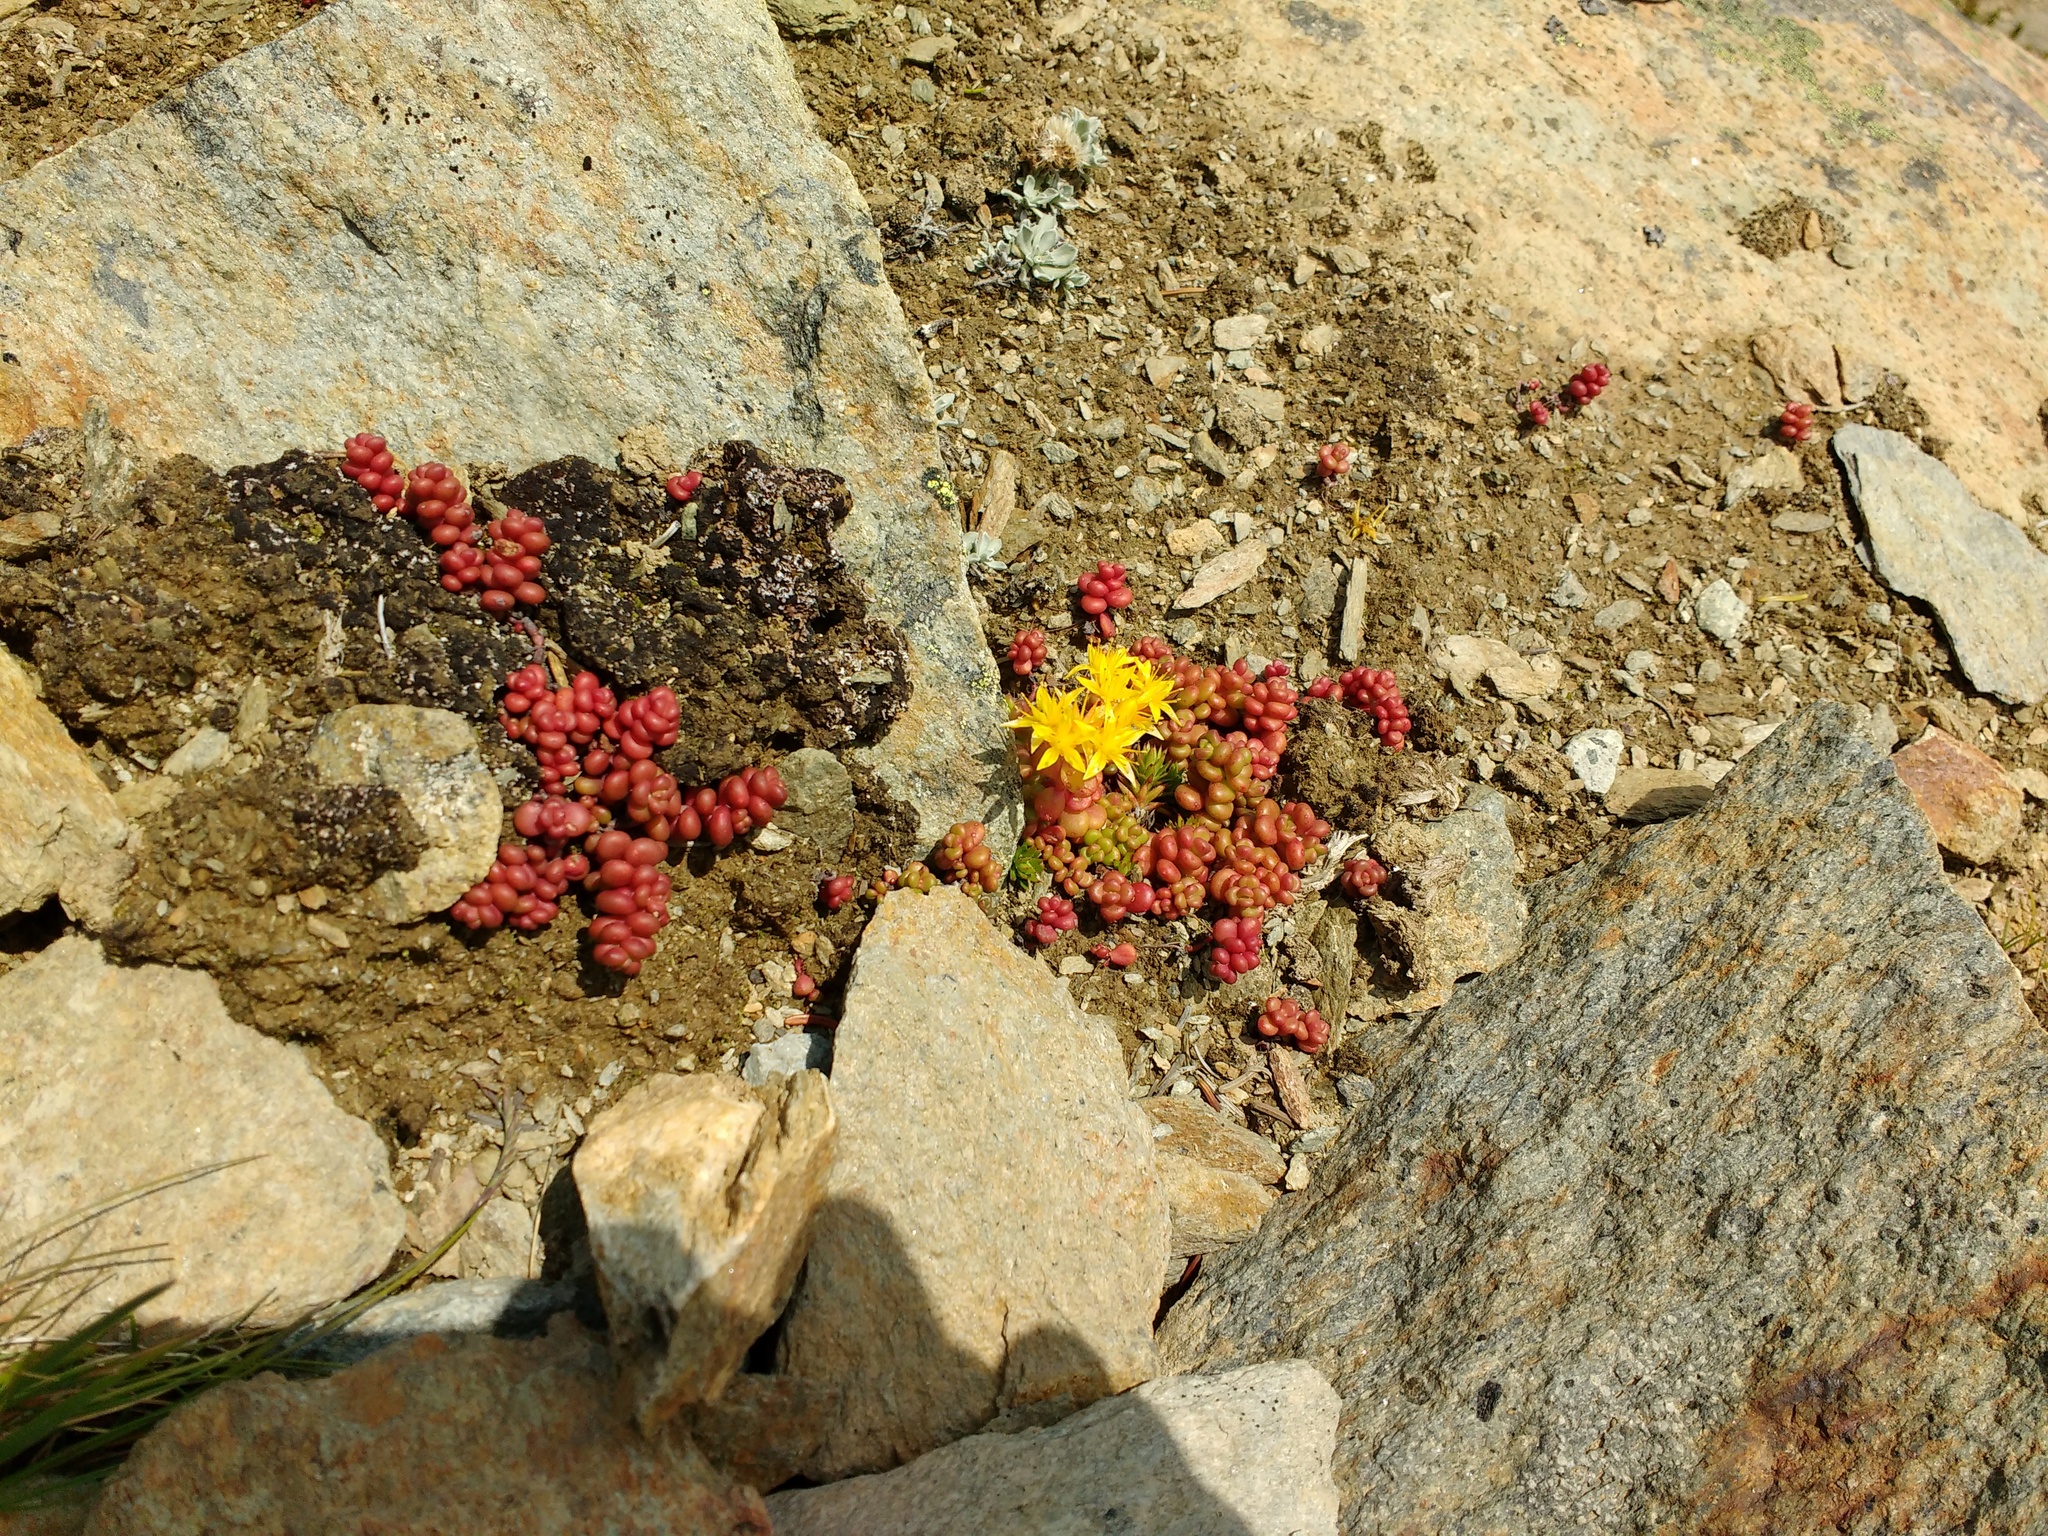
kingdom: Plantae
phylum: Tracheophyta
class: Magnoliopsida
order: Saxifragales
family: Crassulaceae
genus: Sedum
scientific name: Sedum divergens
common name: Cascade stonecrop
